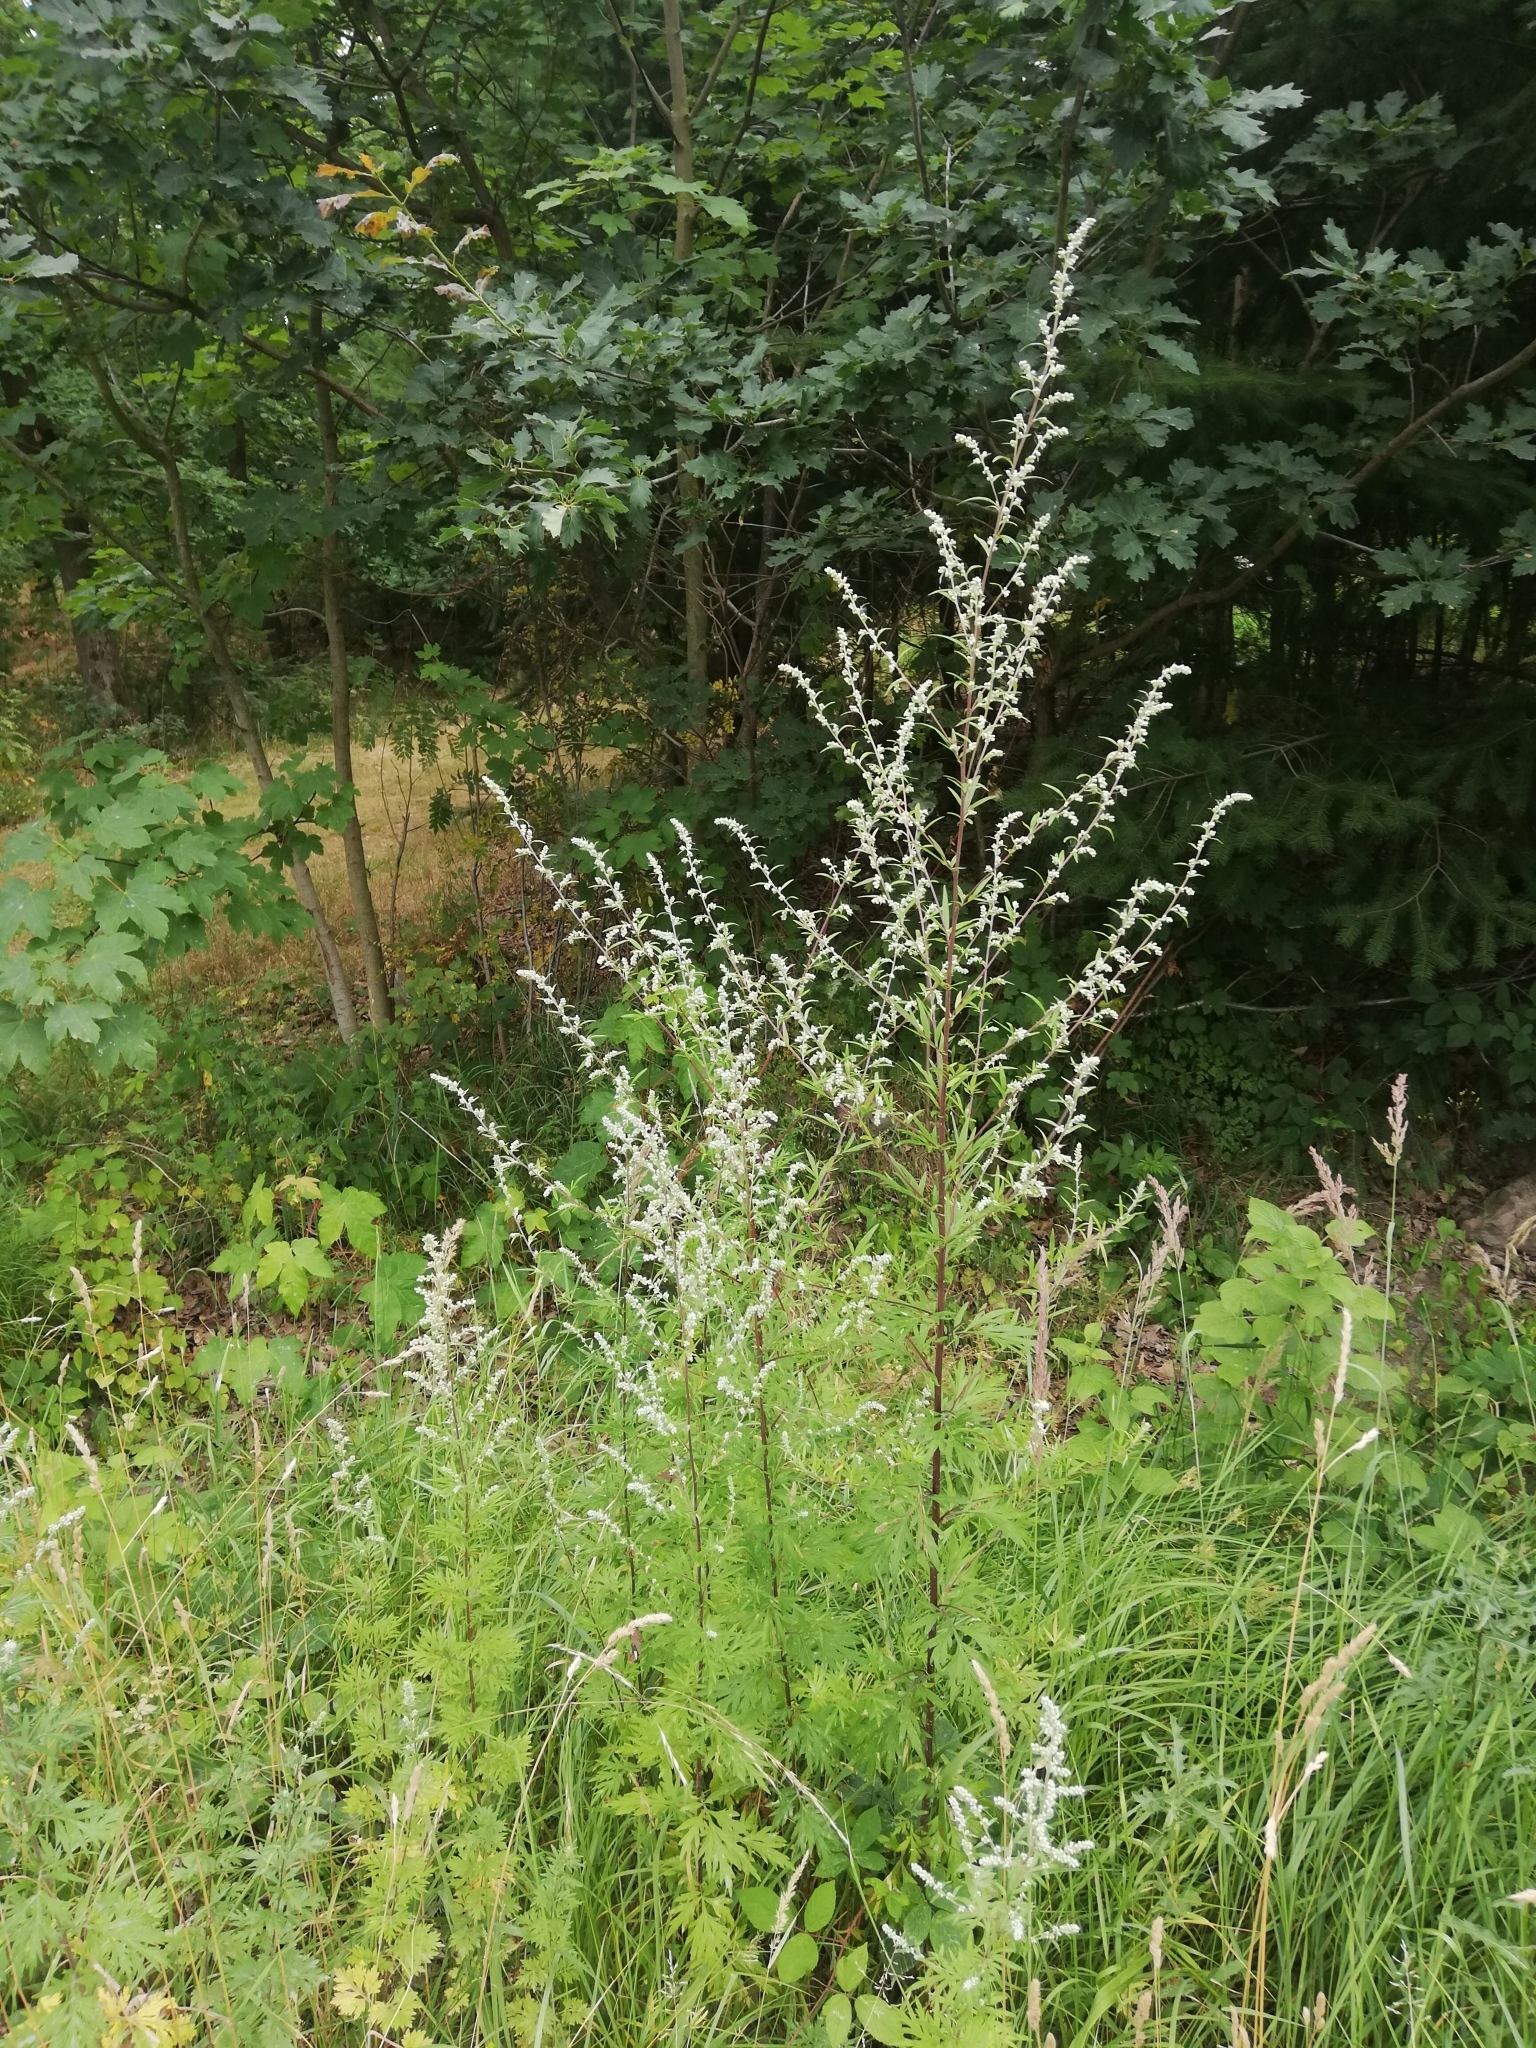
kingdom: Plantae
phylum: Tracheophyta
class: Magnoliopsida
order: Asterales
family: Asteraceae
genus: Artemisia
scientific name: Artemisia vulgaris
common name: Mugwort
